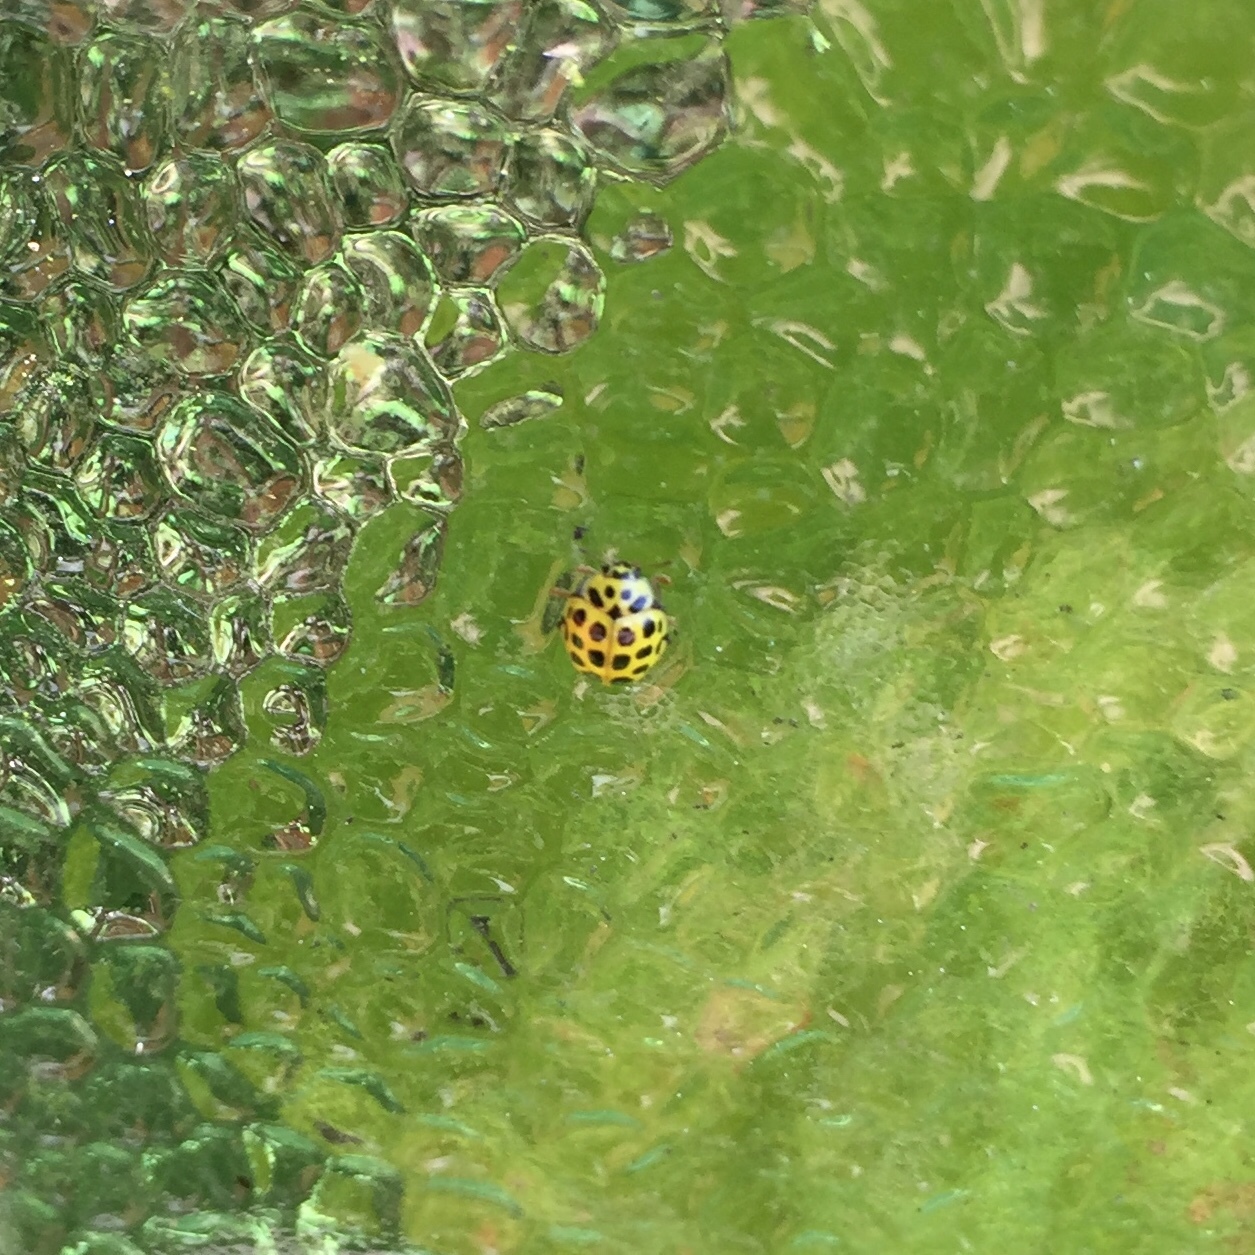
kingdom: Animalia
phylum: Arthropoda
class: Insecta
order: Coleoptera
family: Coccinellidae
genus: Psyllobora
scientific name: Psyllobora vigintiduopunctata
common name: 22-spot ladybird
